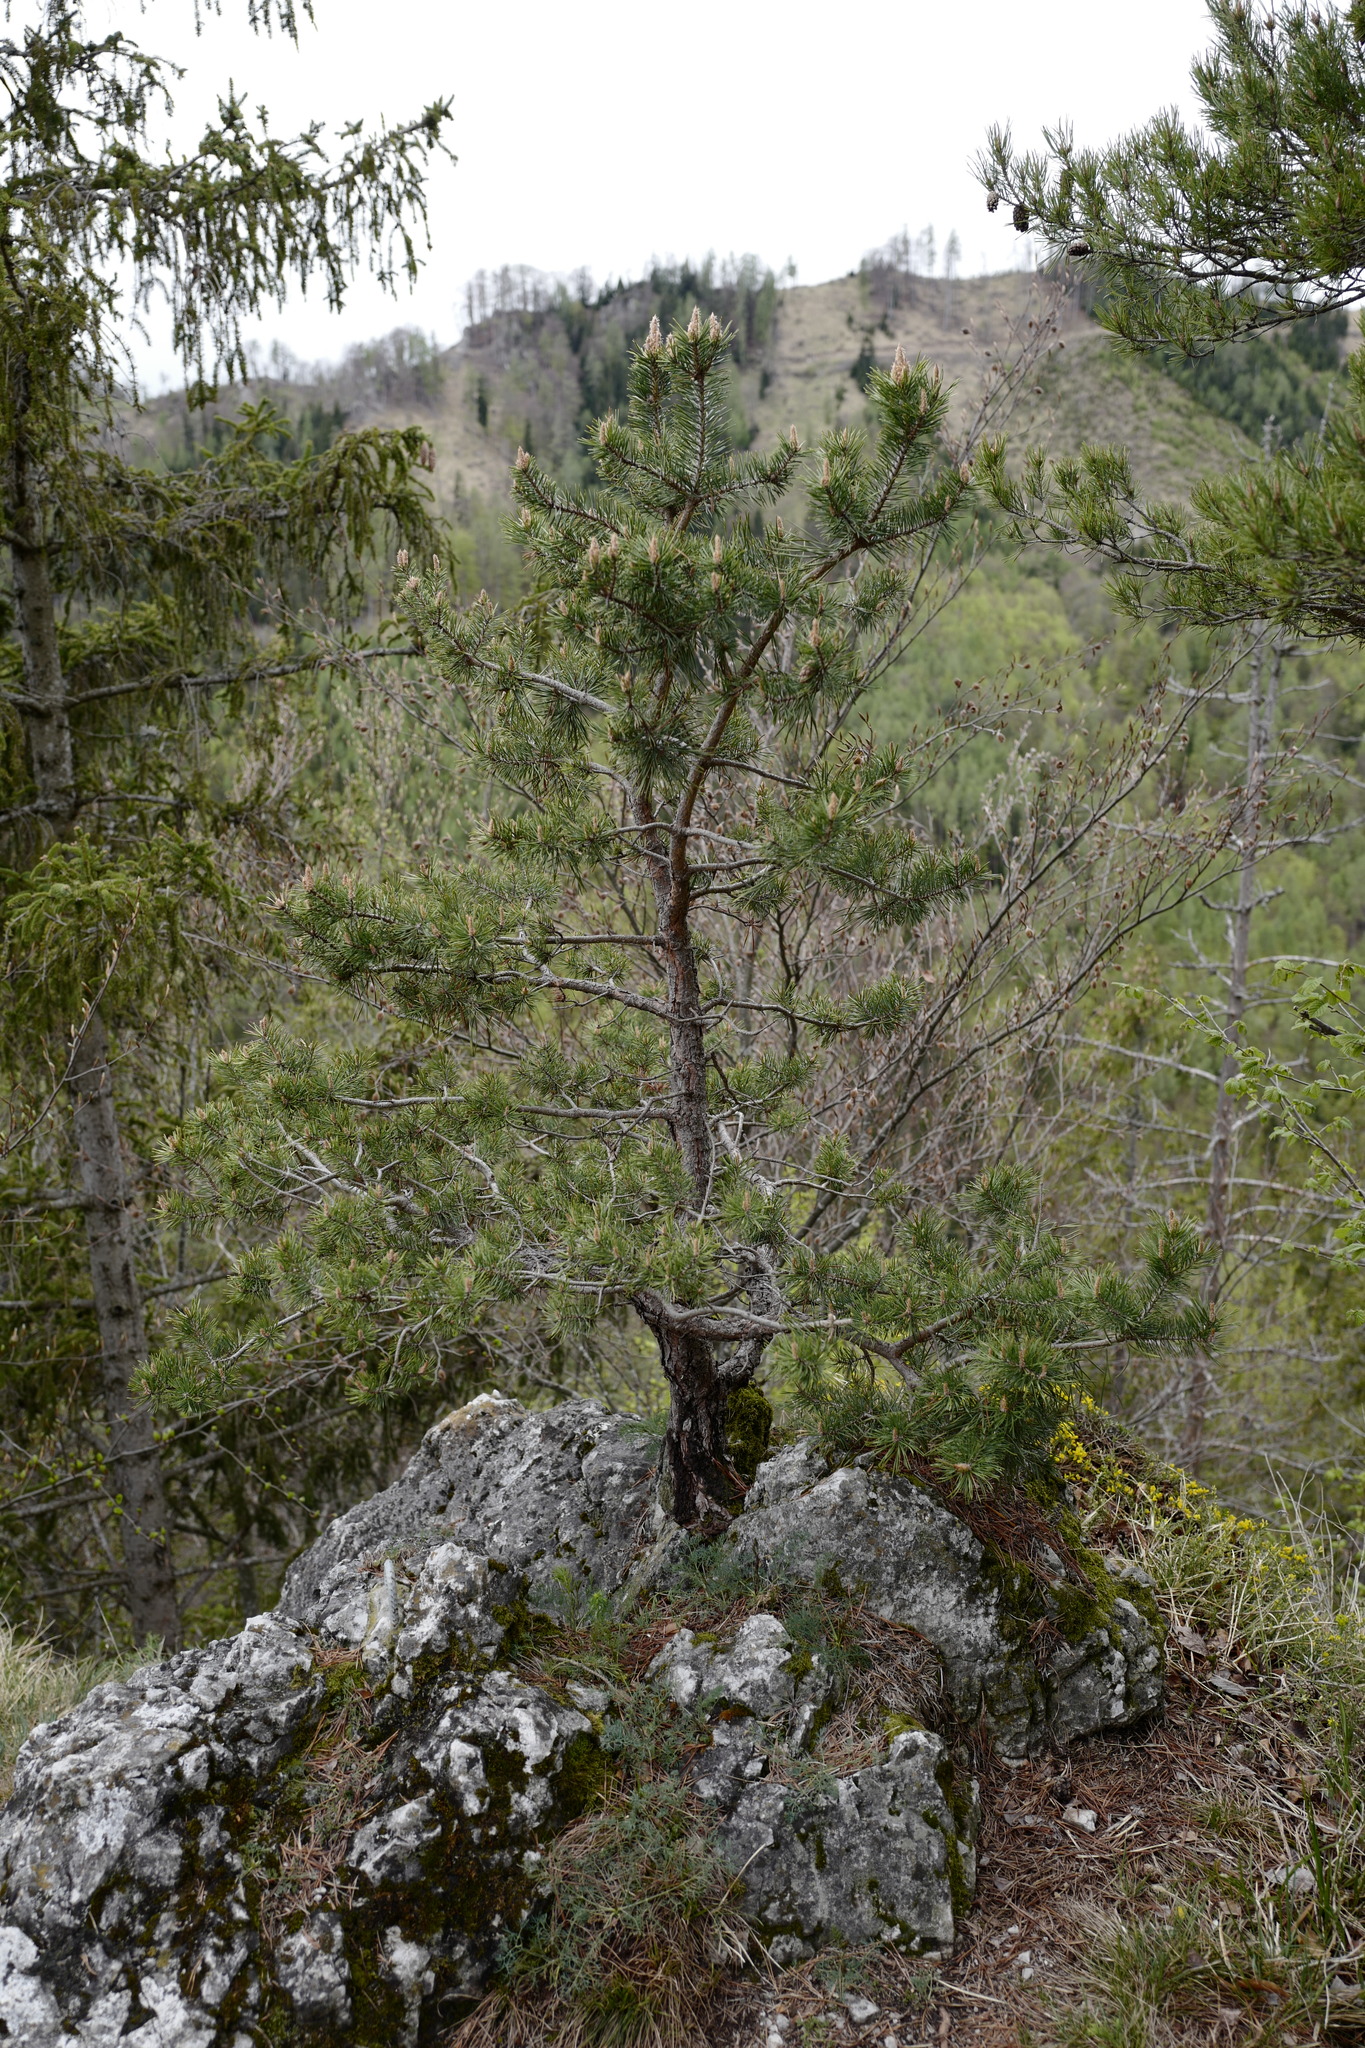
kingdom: Plantae
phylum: Tracheophyta
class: Pinopsida
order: Pinales
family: Pinaceae
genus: Pinus
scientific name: Pinus sylvestris
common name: Scots pine
